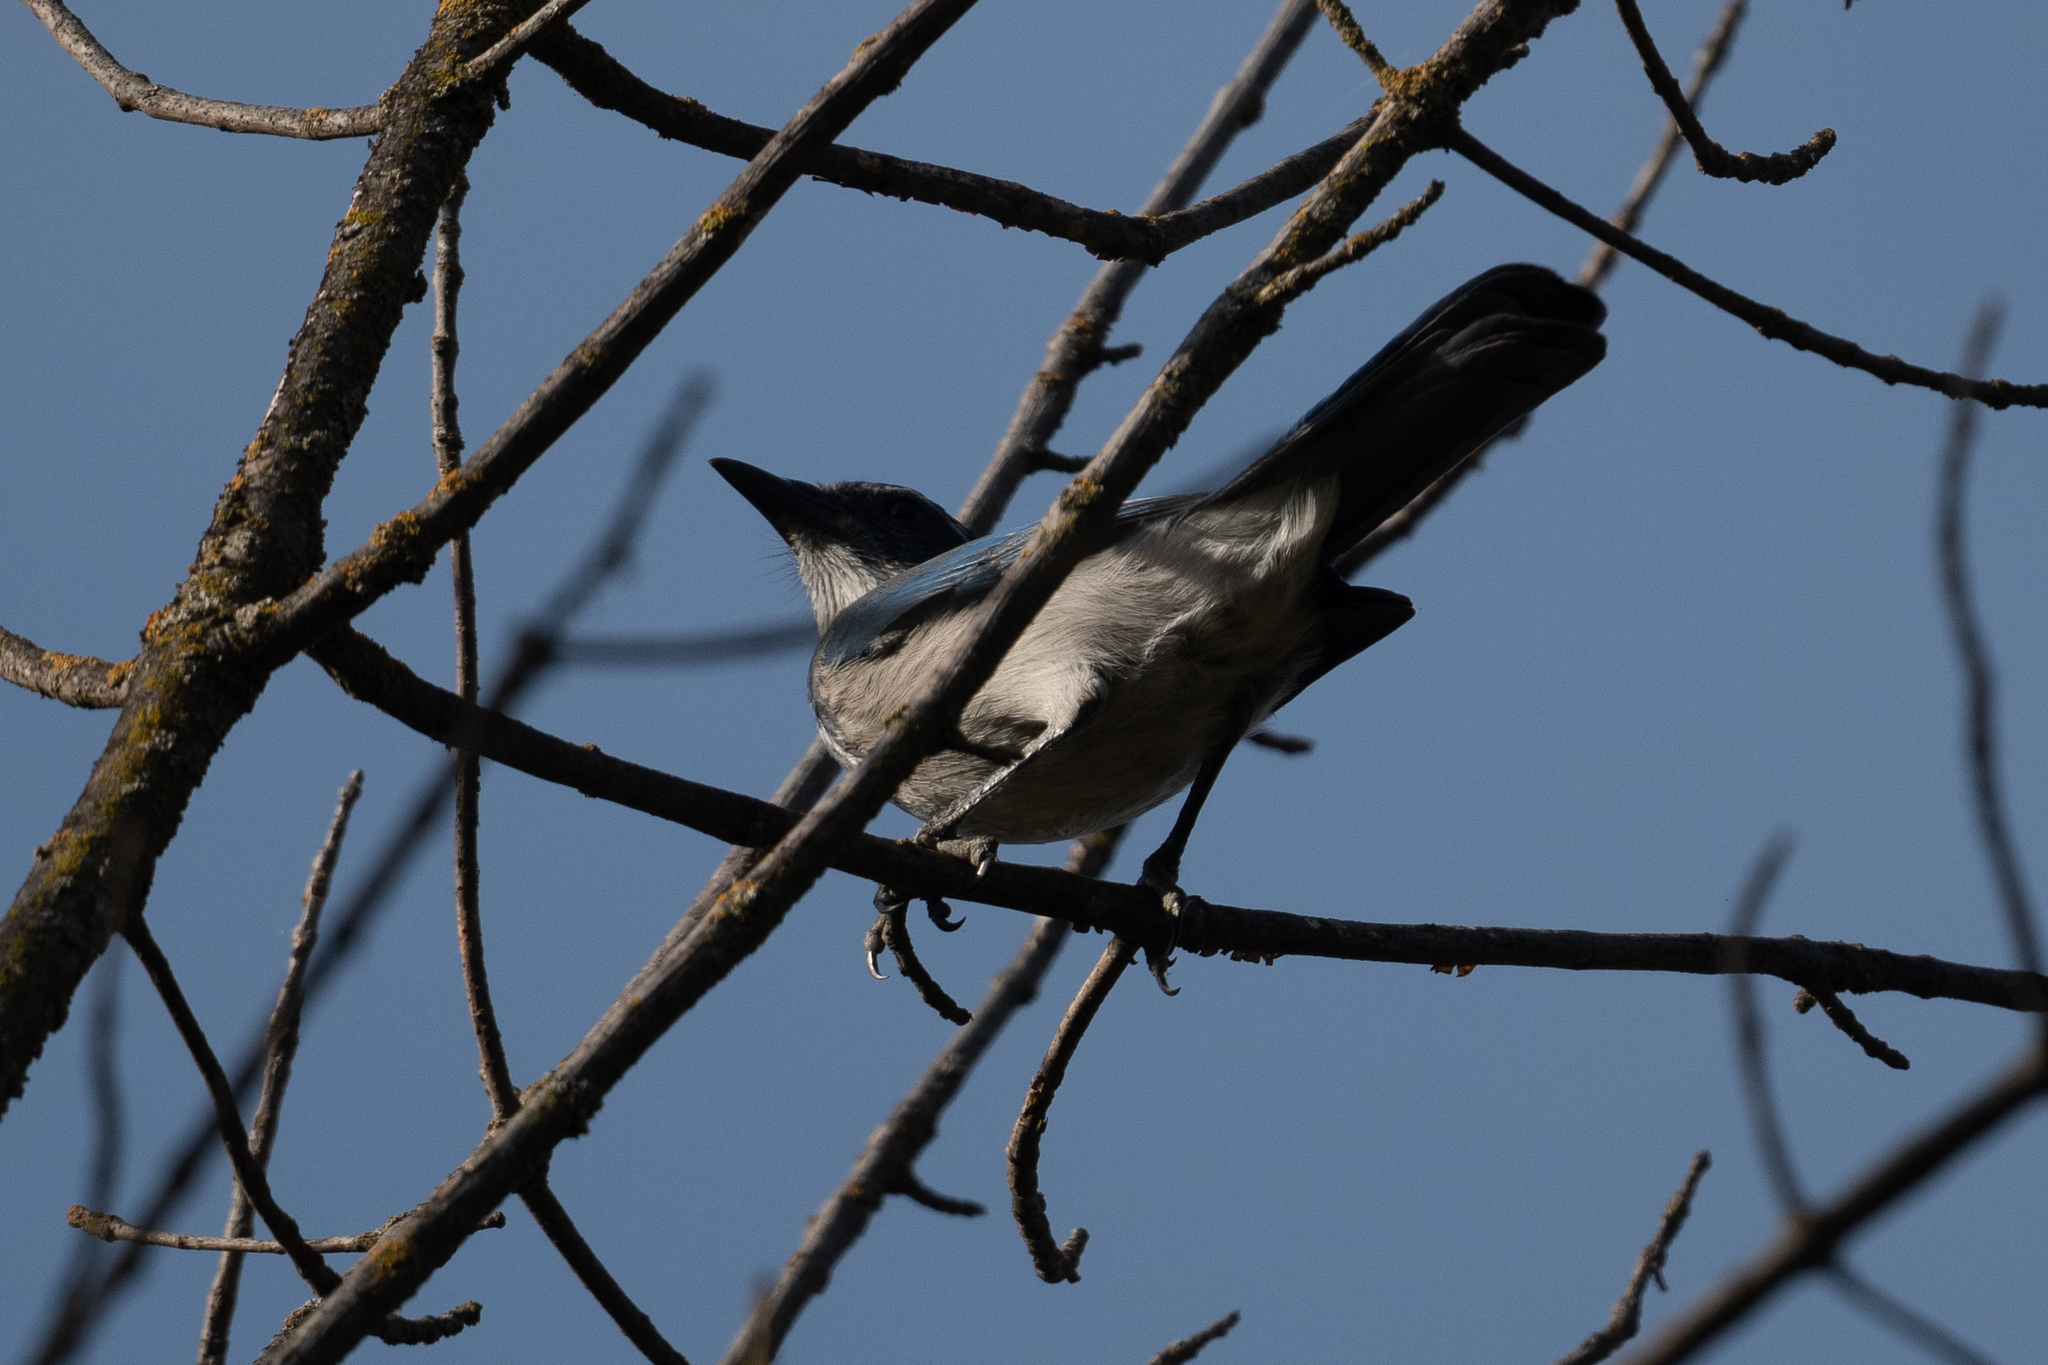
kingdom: Animalia
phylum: Chordata
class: Aves
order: Passeriformes
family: Corvidae
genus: Aphelocoma
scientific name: Aphelocoma californica
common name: California scrub-jay
